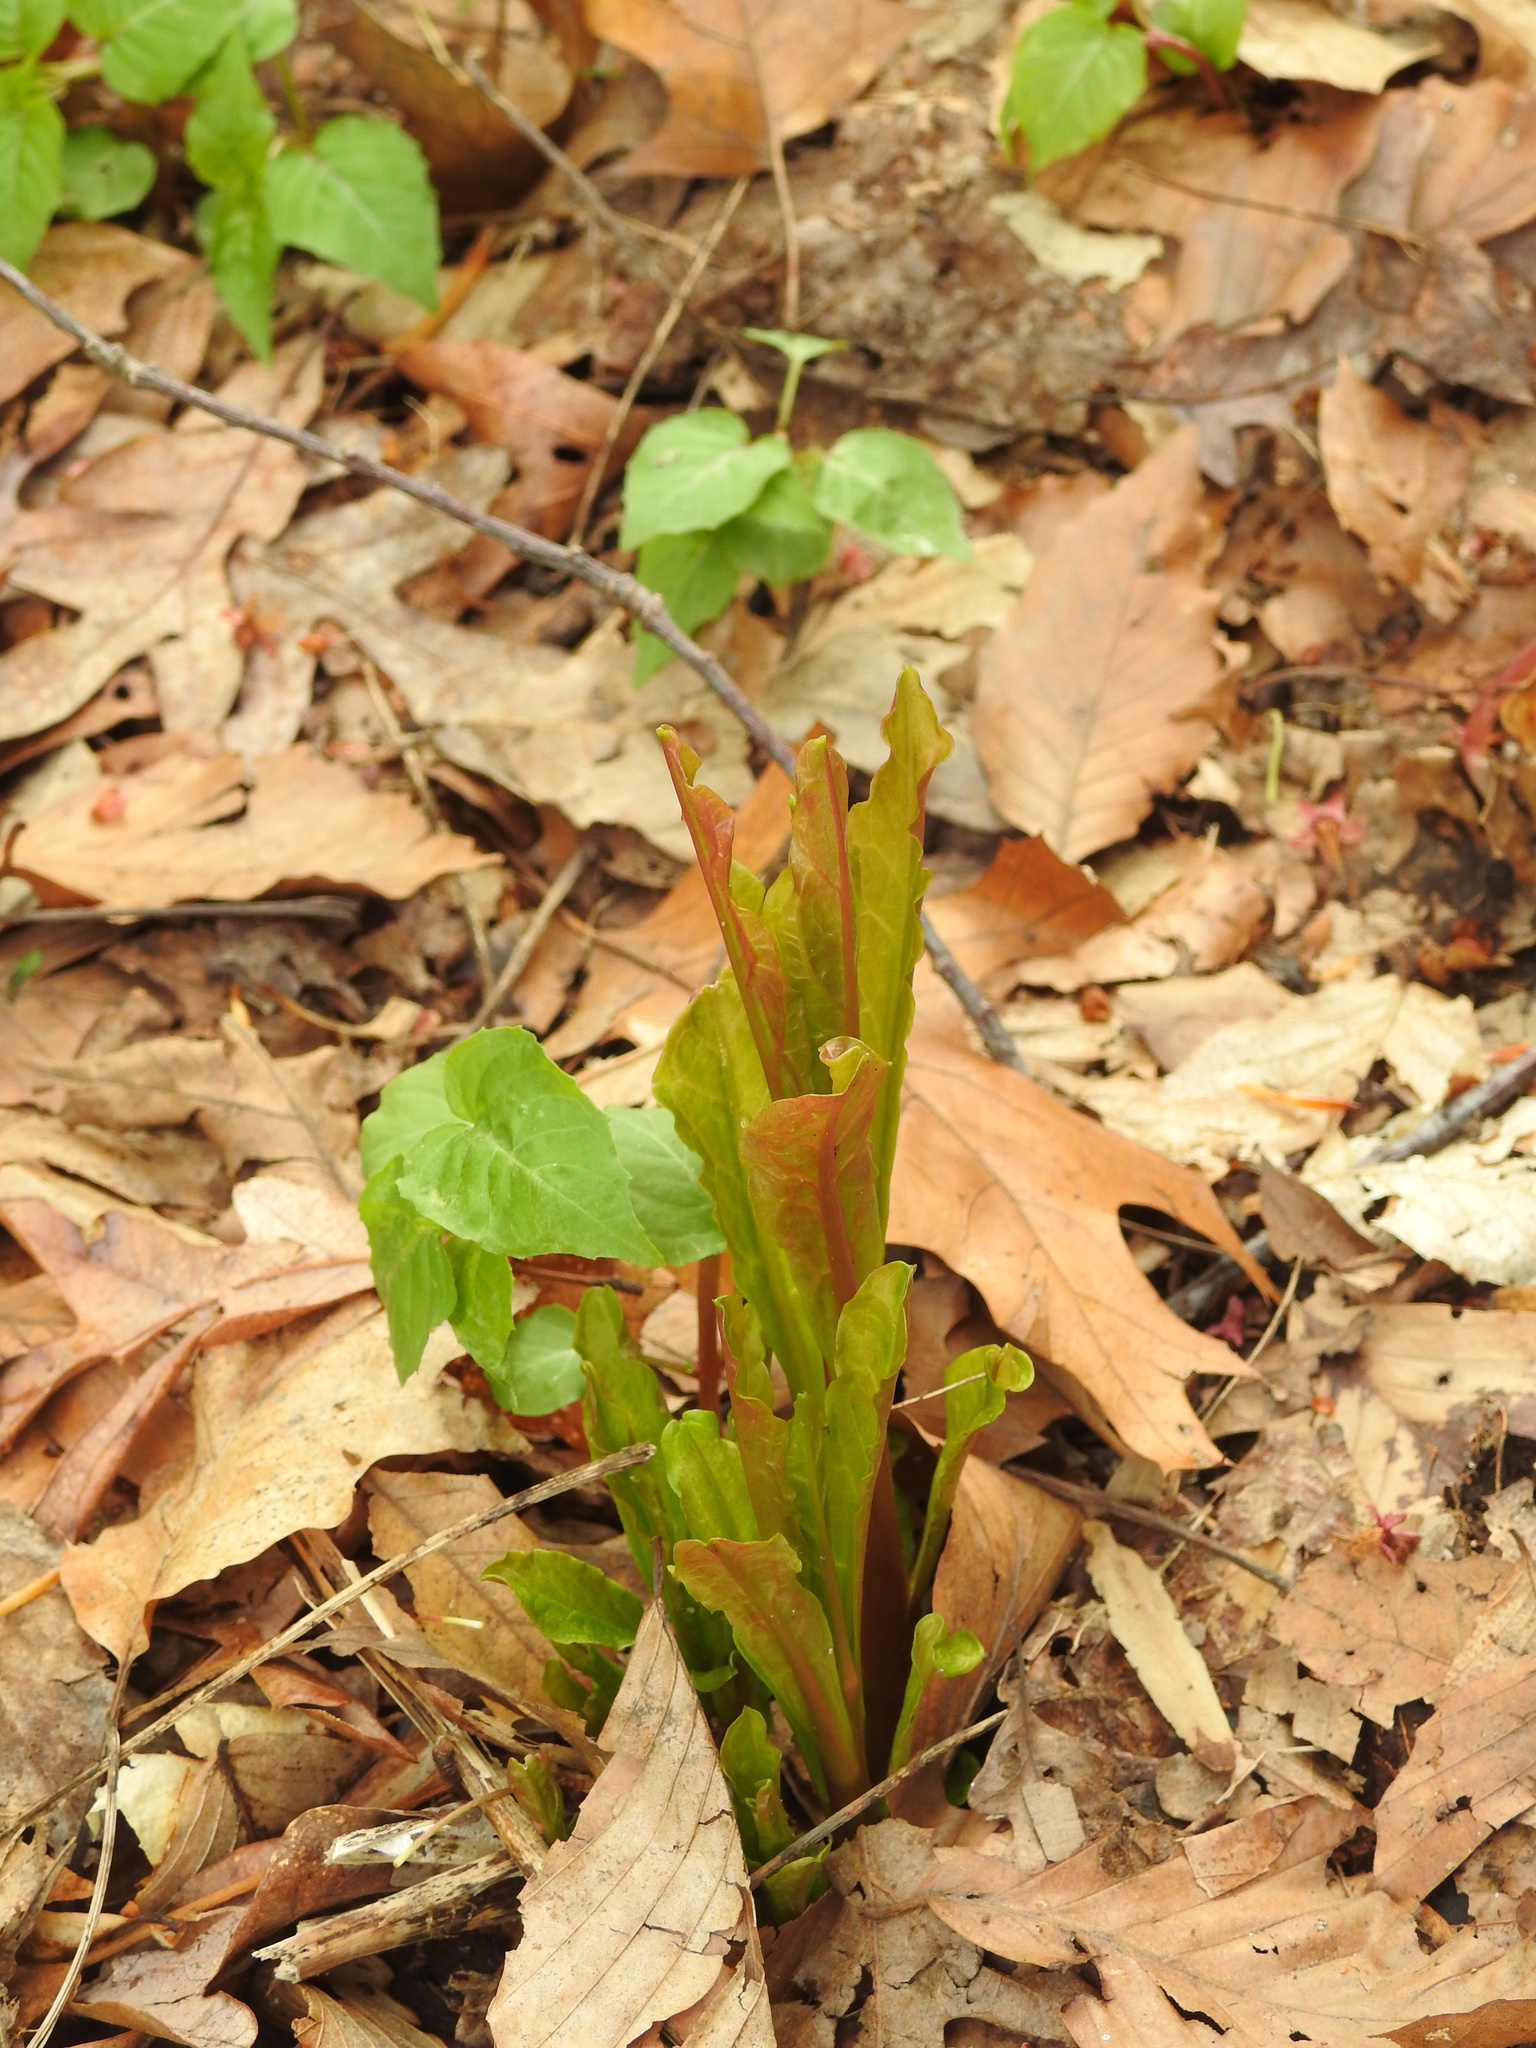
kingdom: Plantae
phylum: Tracheophyta
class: Magnoliopsida
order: Caryophyllales
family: Phytolaccaceae
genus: Phytolacca
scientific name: Phytolacca americana
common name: American pokeweed
